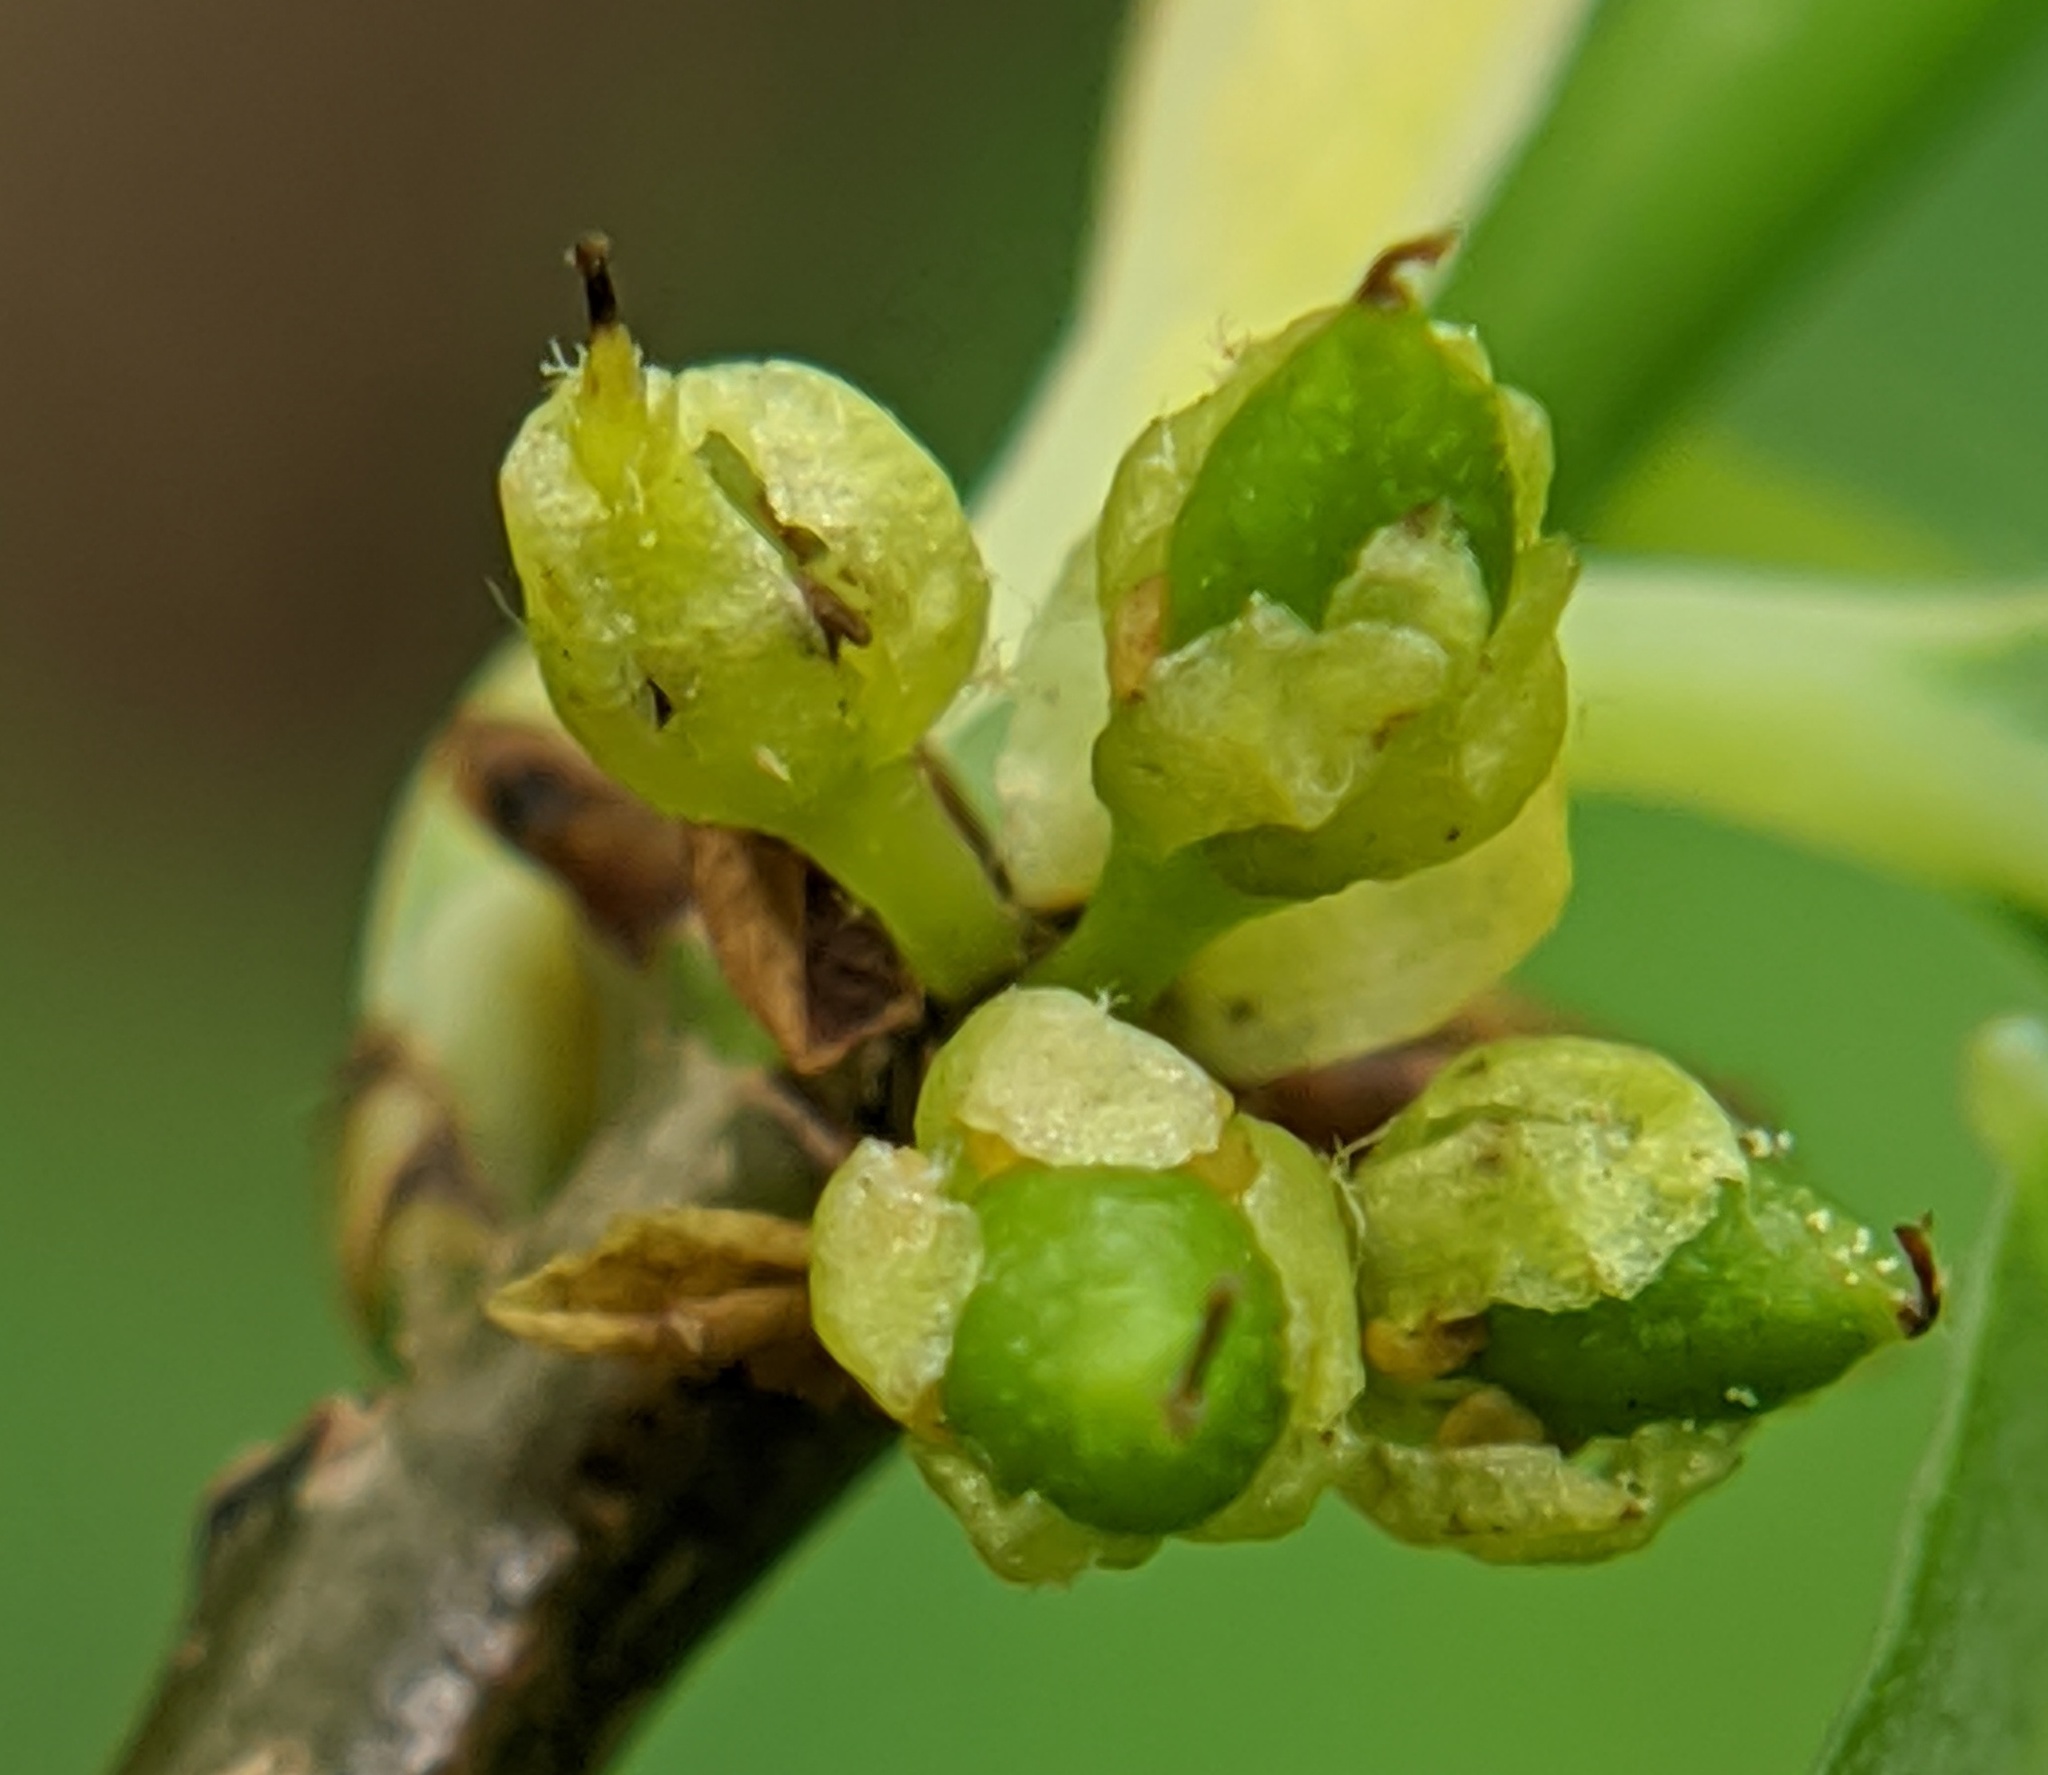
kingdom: Plantae
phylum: Tracheophyta
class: Magnoliopsida
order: Laurales
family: Lauraceae
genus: Lindera
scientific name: Lindera benzoin
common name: Spicebush
